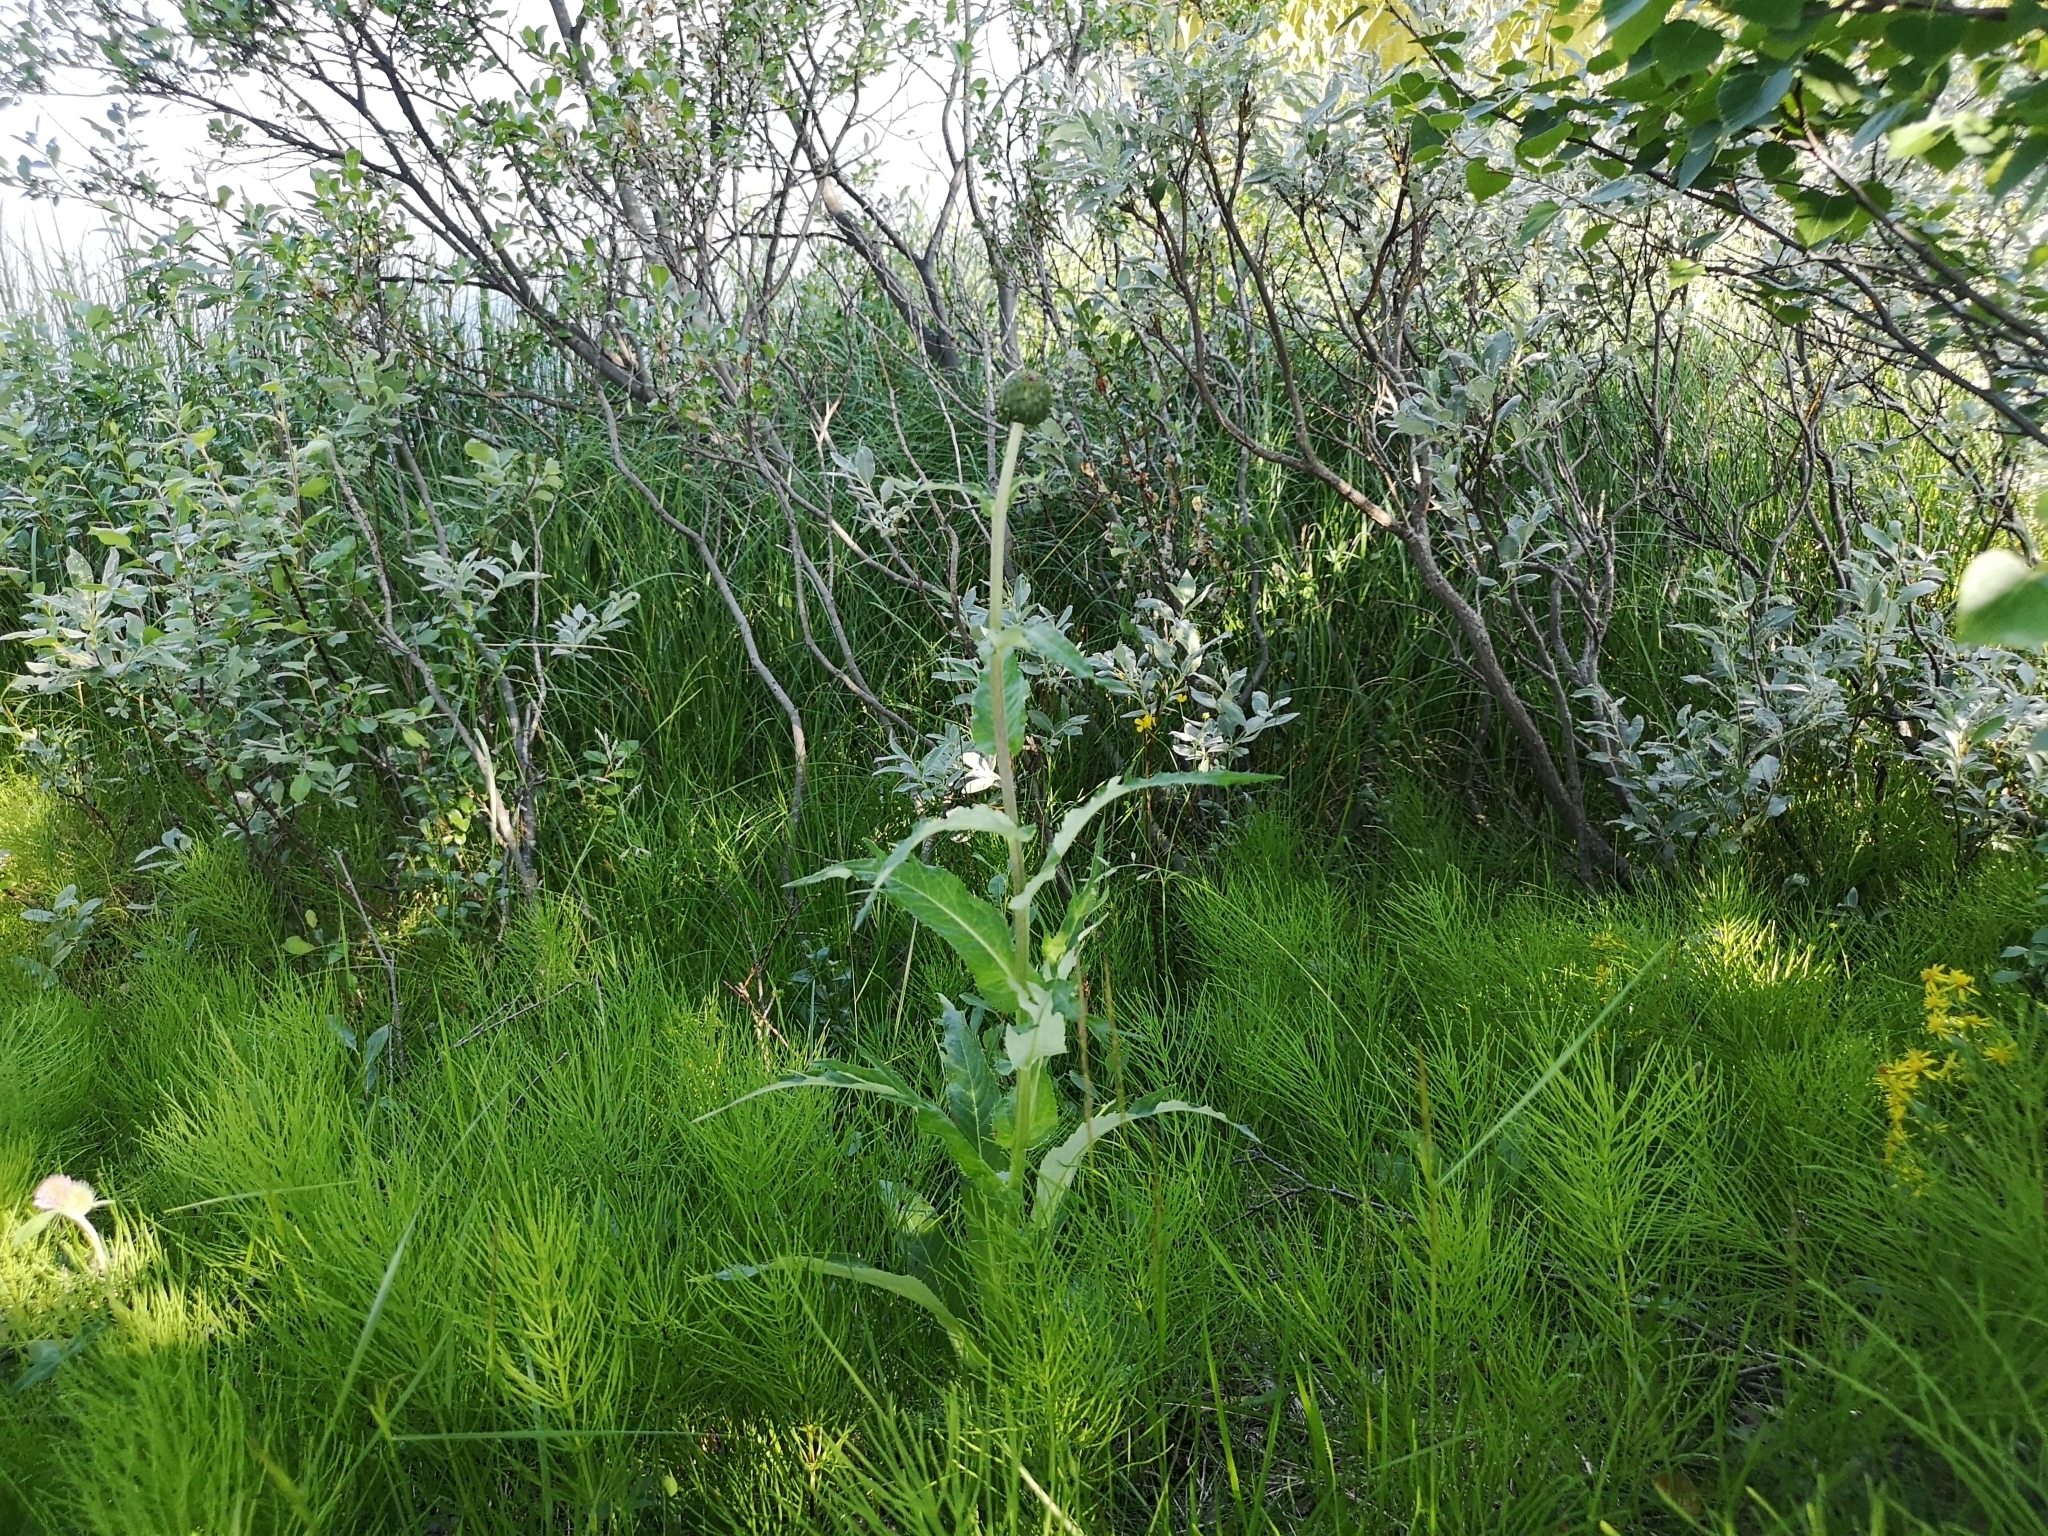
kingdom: Plantae
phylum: Tracheophyta
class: Magnoliopsida
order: Asterales
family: Asteraceae
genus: Cirsium
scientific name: Cirsium heterophyllum
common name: Melancholy thistle
